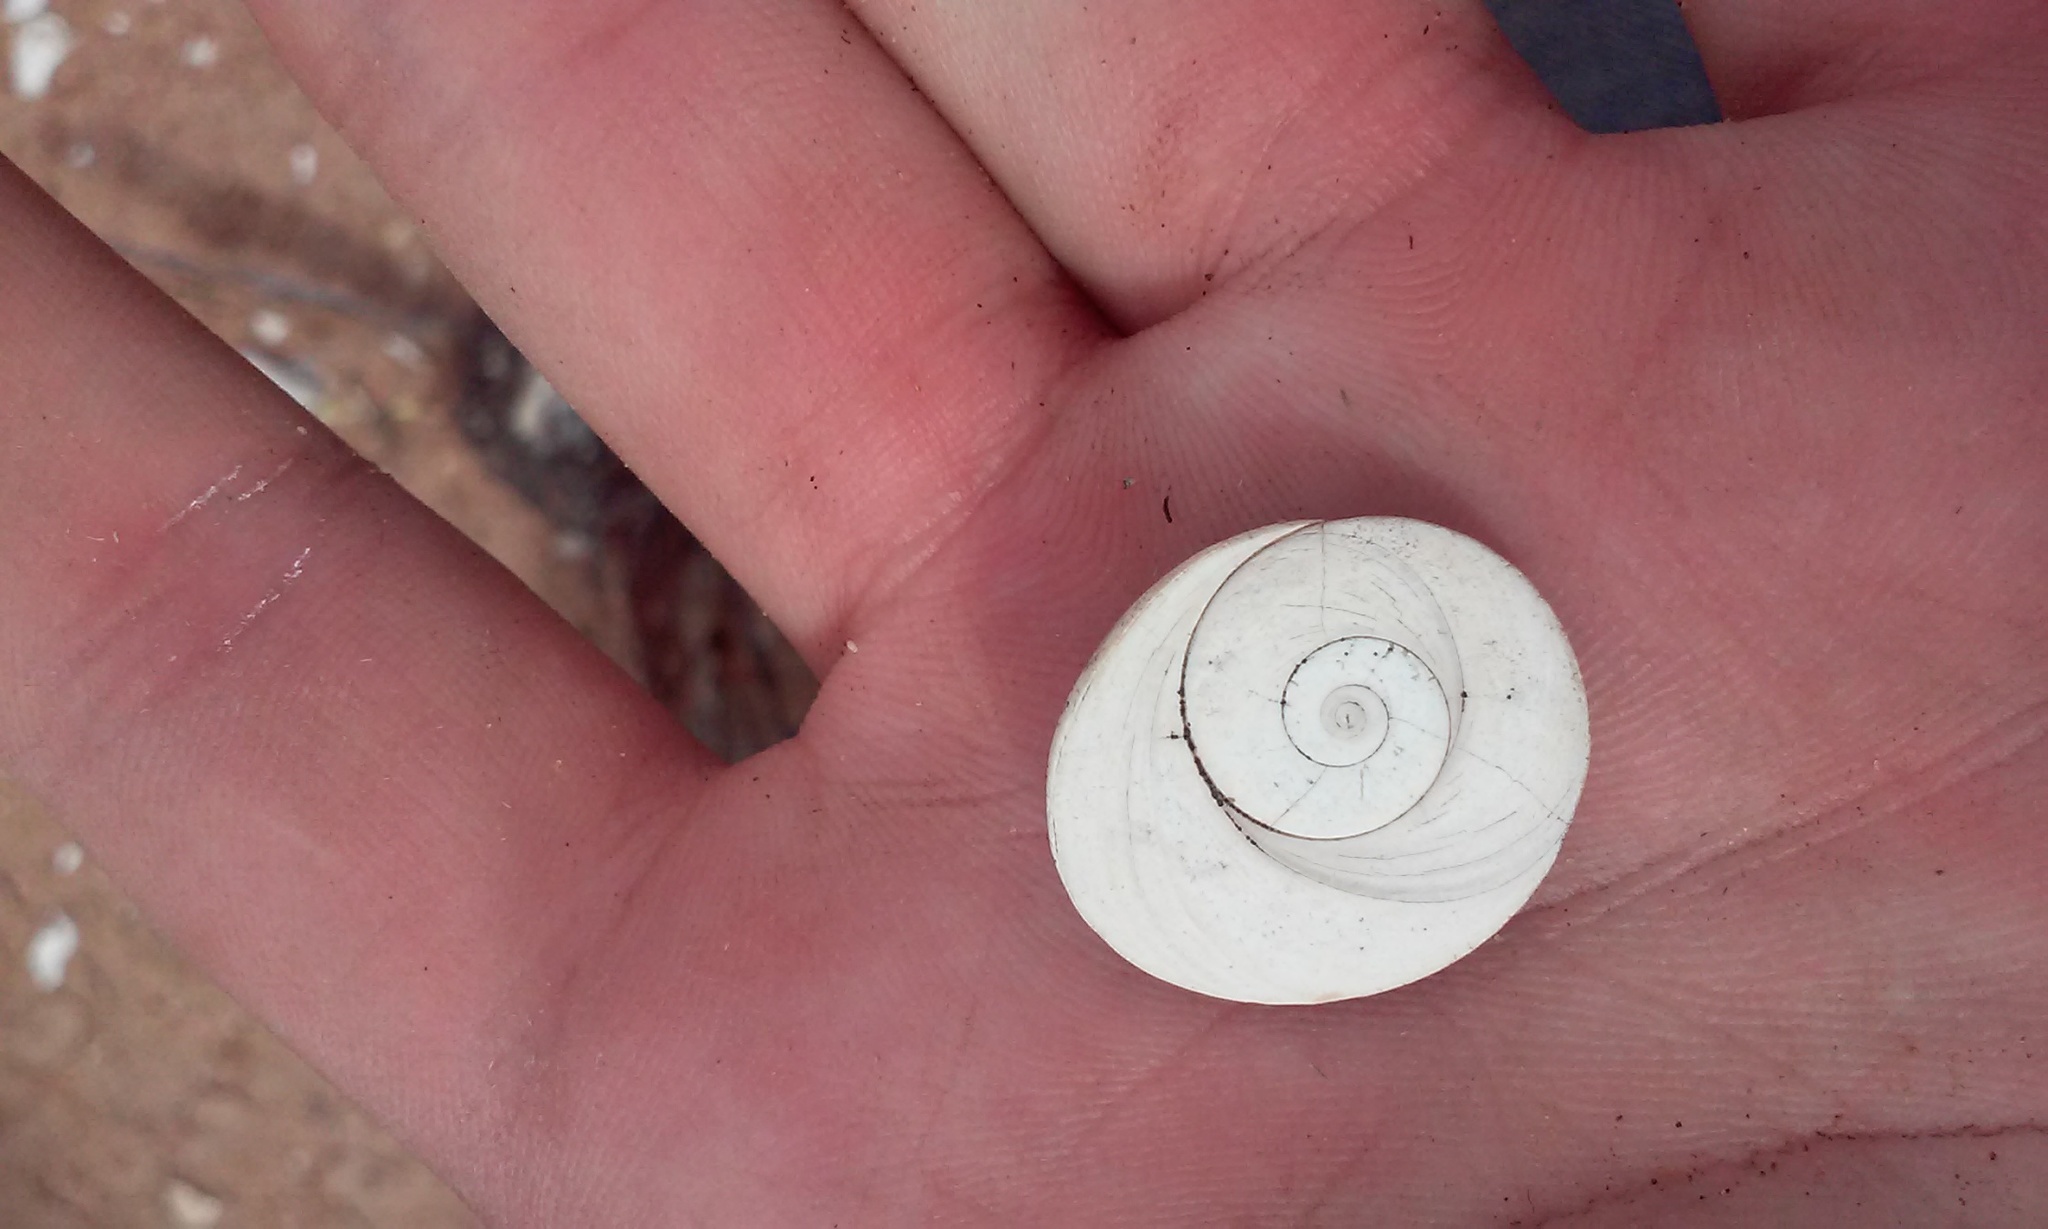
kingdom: Animalia
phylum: Mollusca
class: Gastropoda
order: Trochida
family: Turbinidae
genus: Turbo
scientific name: Turbo fluctuosus
